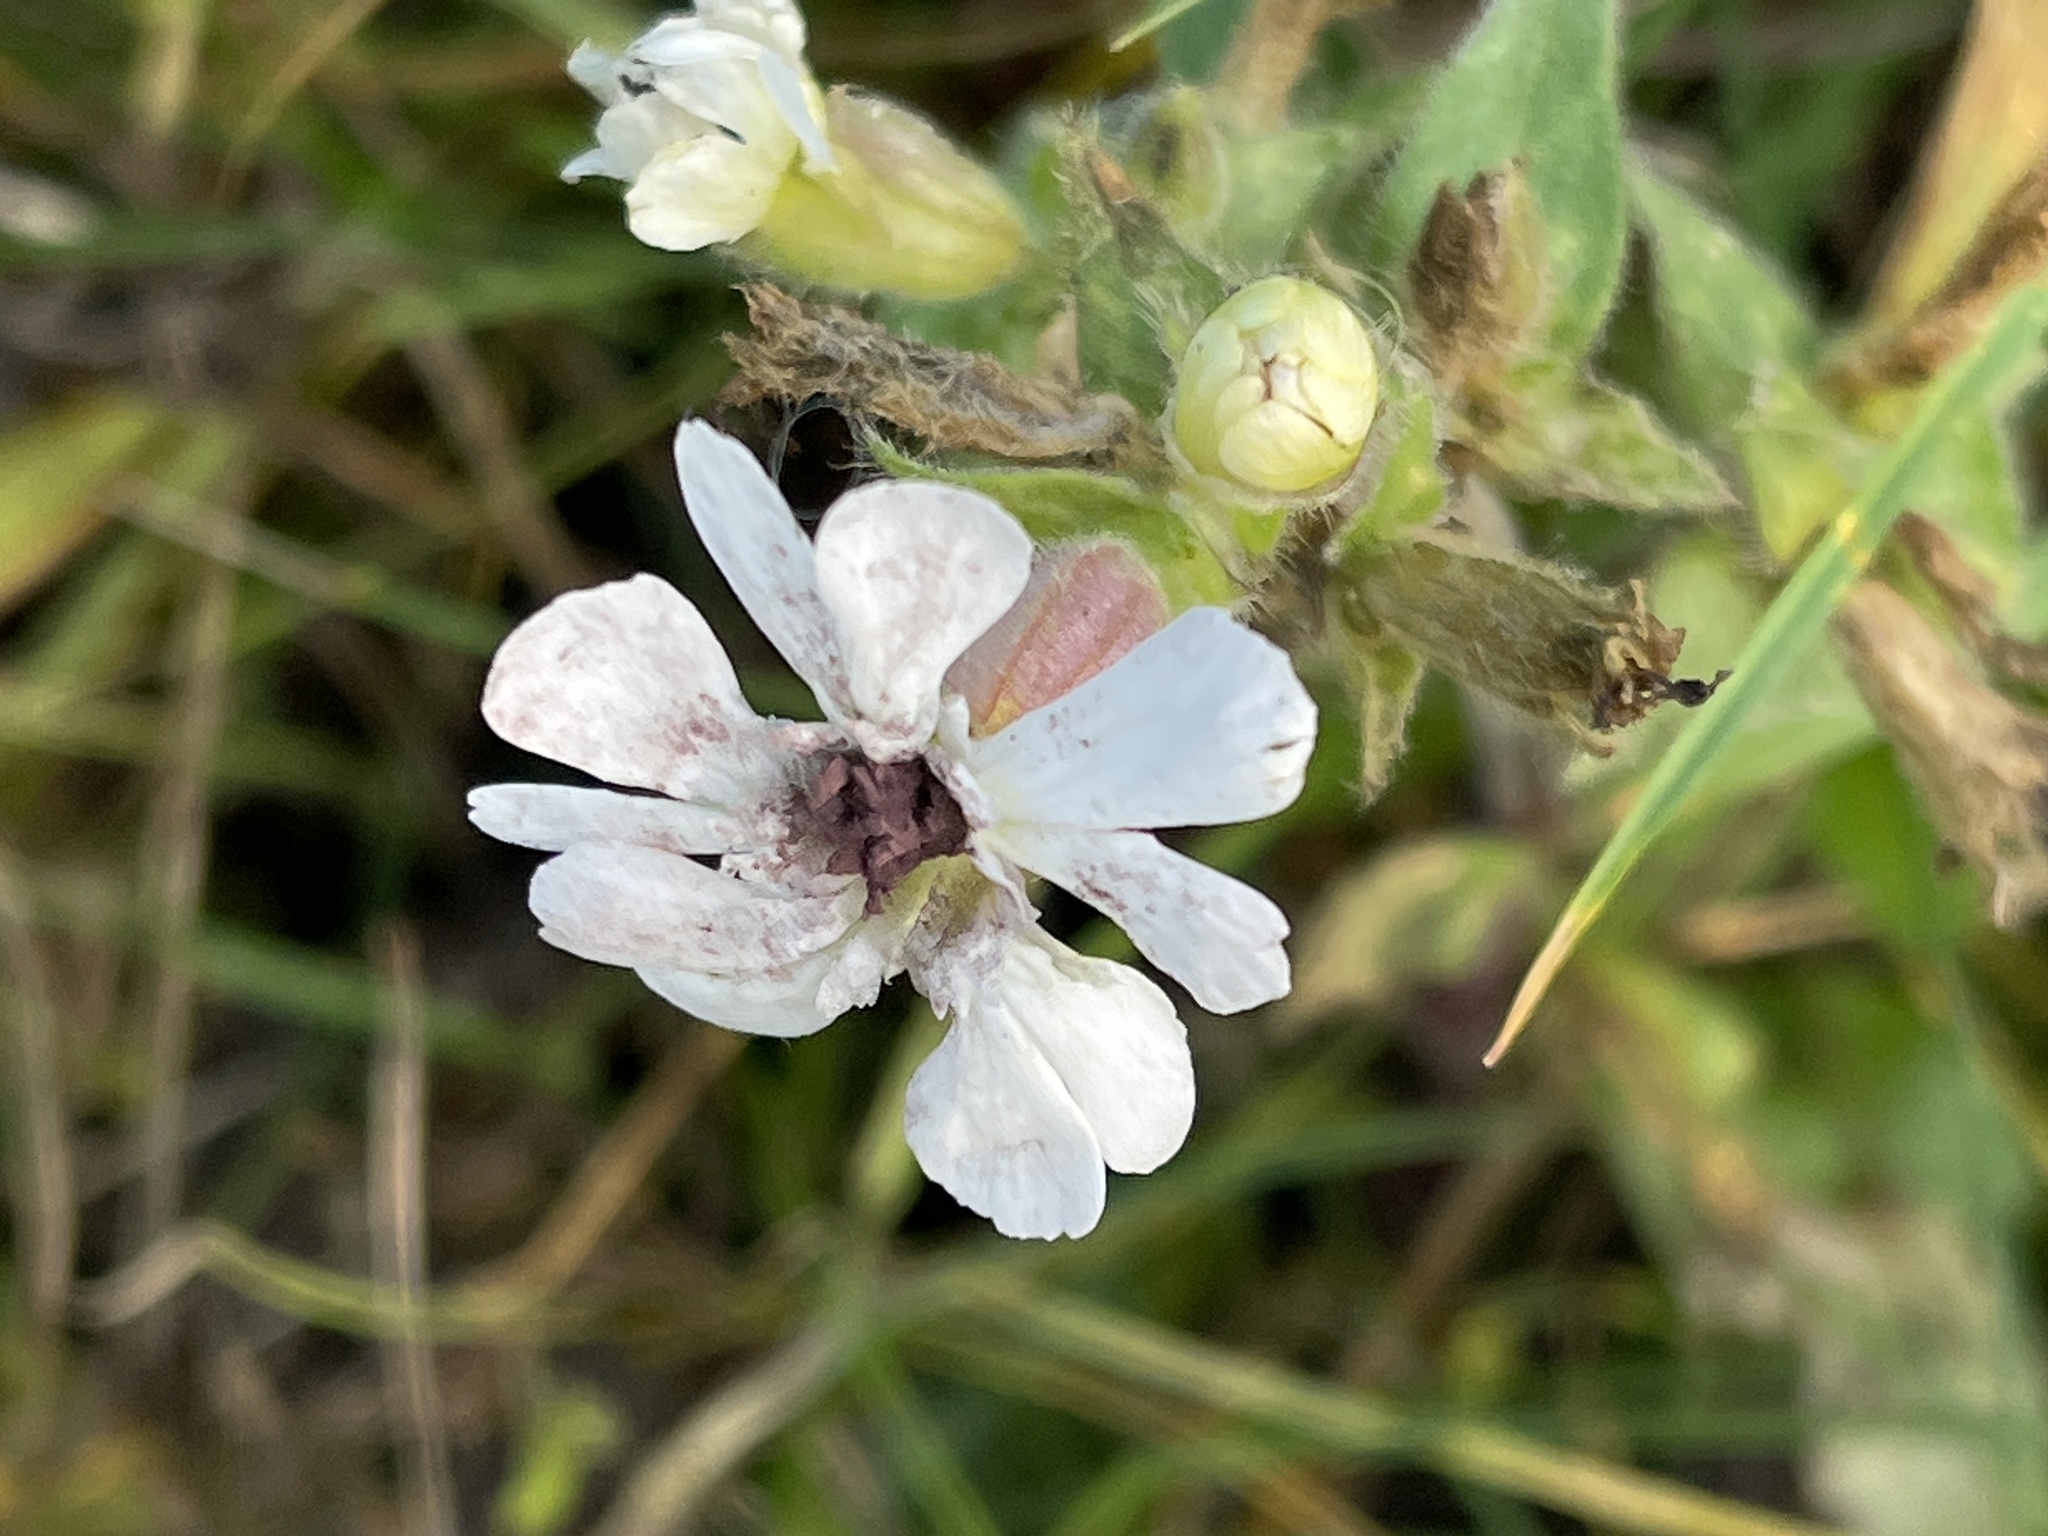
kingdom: Fungi
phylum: Basidiomycota
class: Microbotryomycetes
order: Microbotryales
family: Microbotryaceae
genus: Microbotryum
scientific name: Microbotryum lychnidis-dioicae
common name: Campion anther smut
